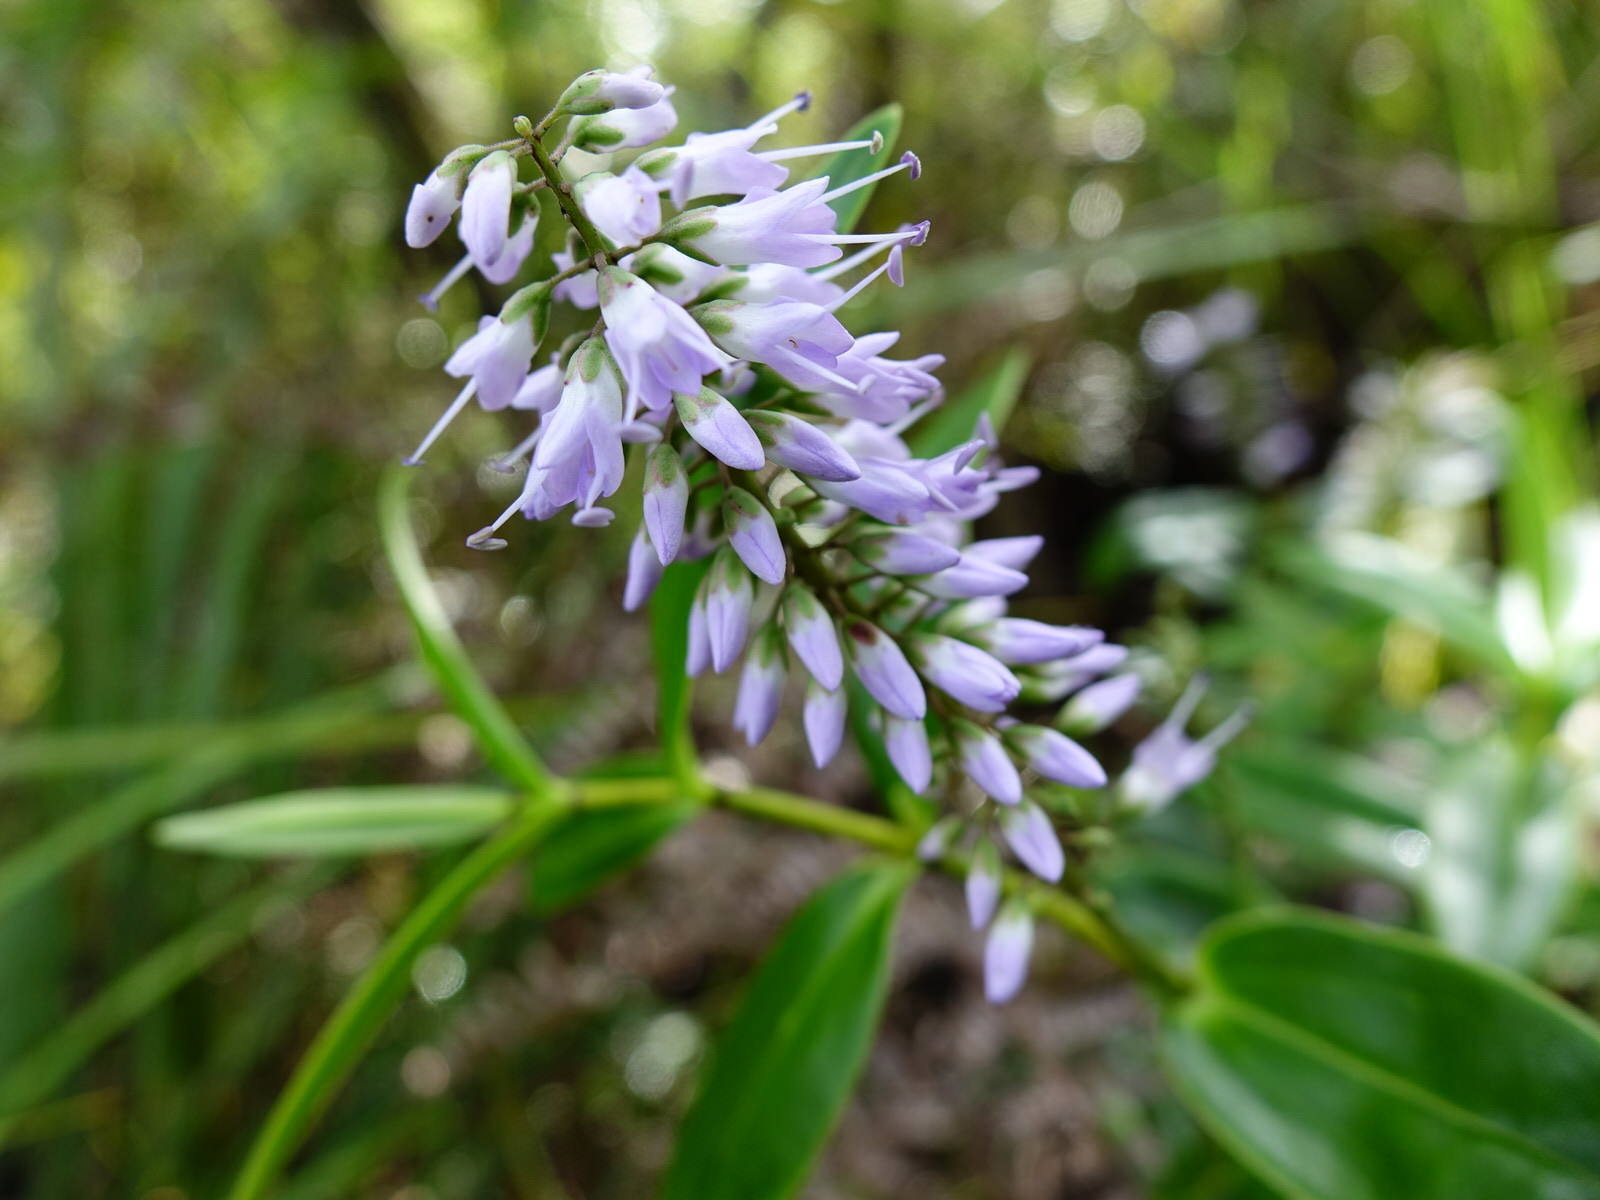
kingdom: Plantae
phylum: Tracheophyta
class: Magnoliopsida
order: Lamiales
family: Plantaginaceae
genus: Veronica
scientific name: Veronica macrocarpa
